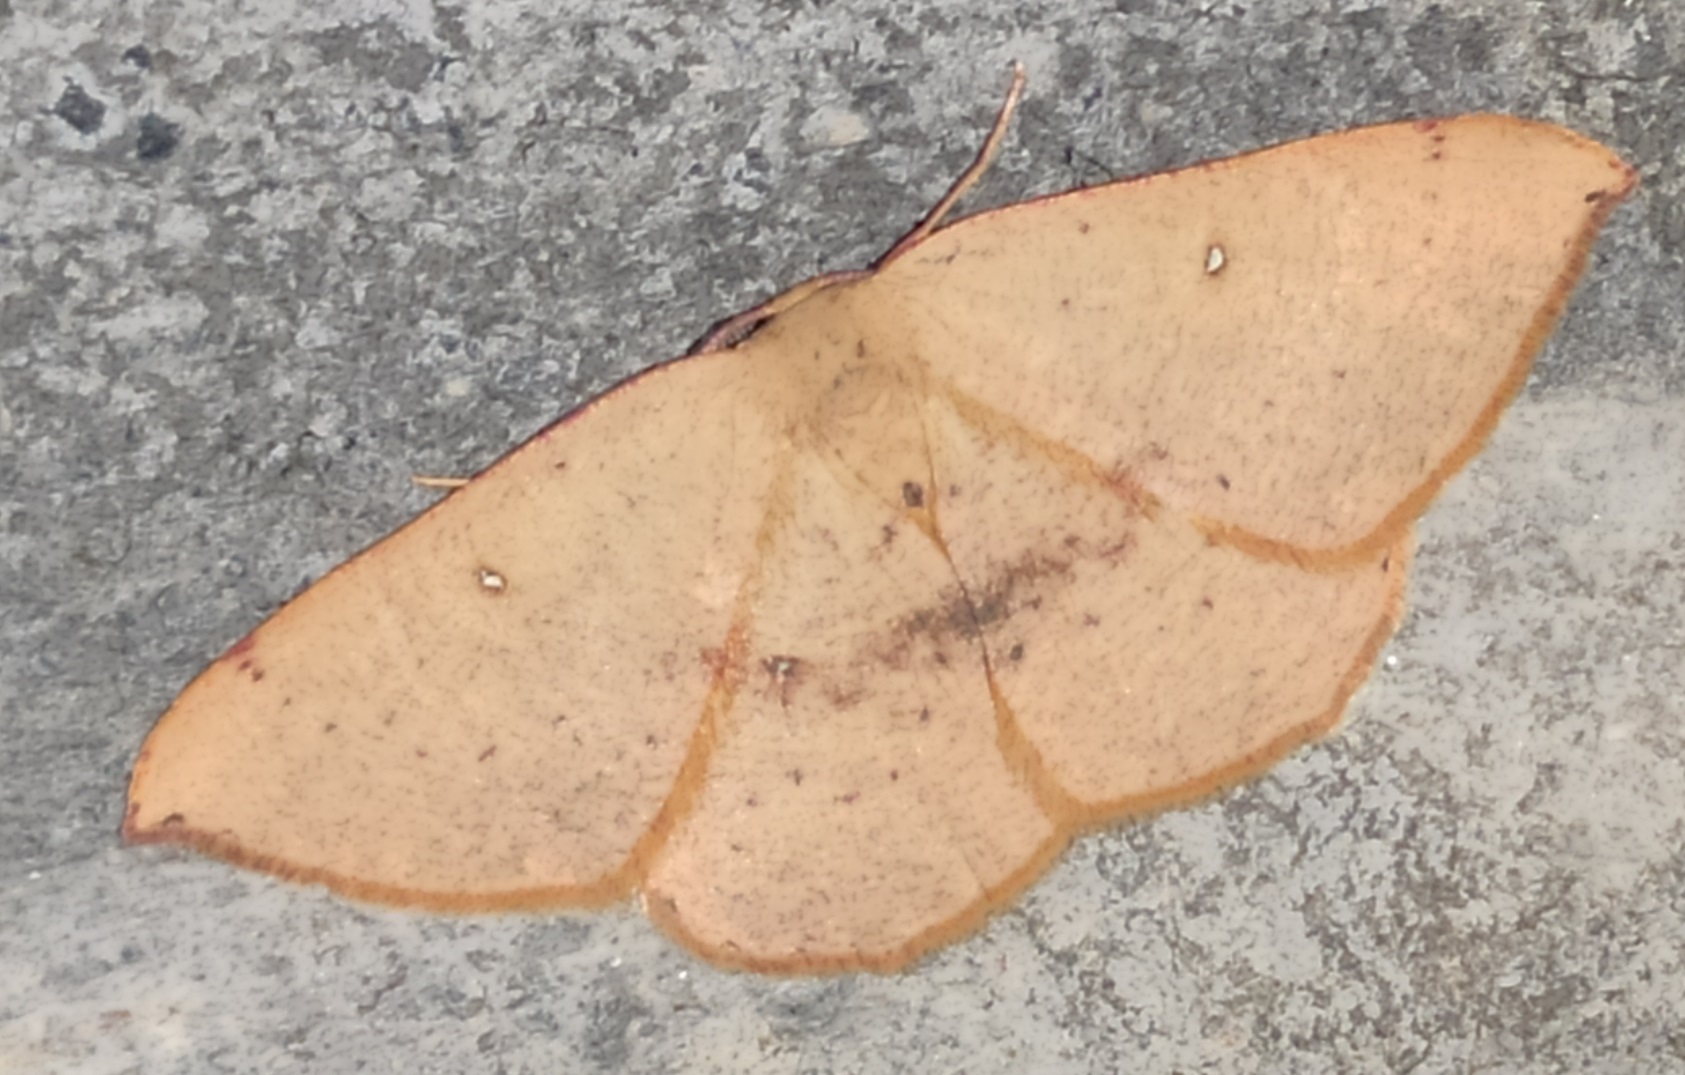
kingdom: Animalia
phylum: Arthropoda
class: Insecta
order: Lepidoptera
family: Geometridae
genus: Cyclophora
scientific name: Cyclophora puppillaria
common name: Blair's mocha
